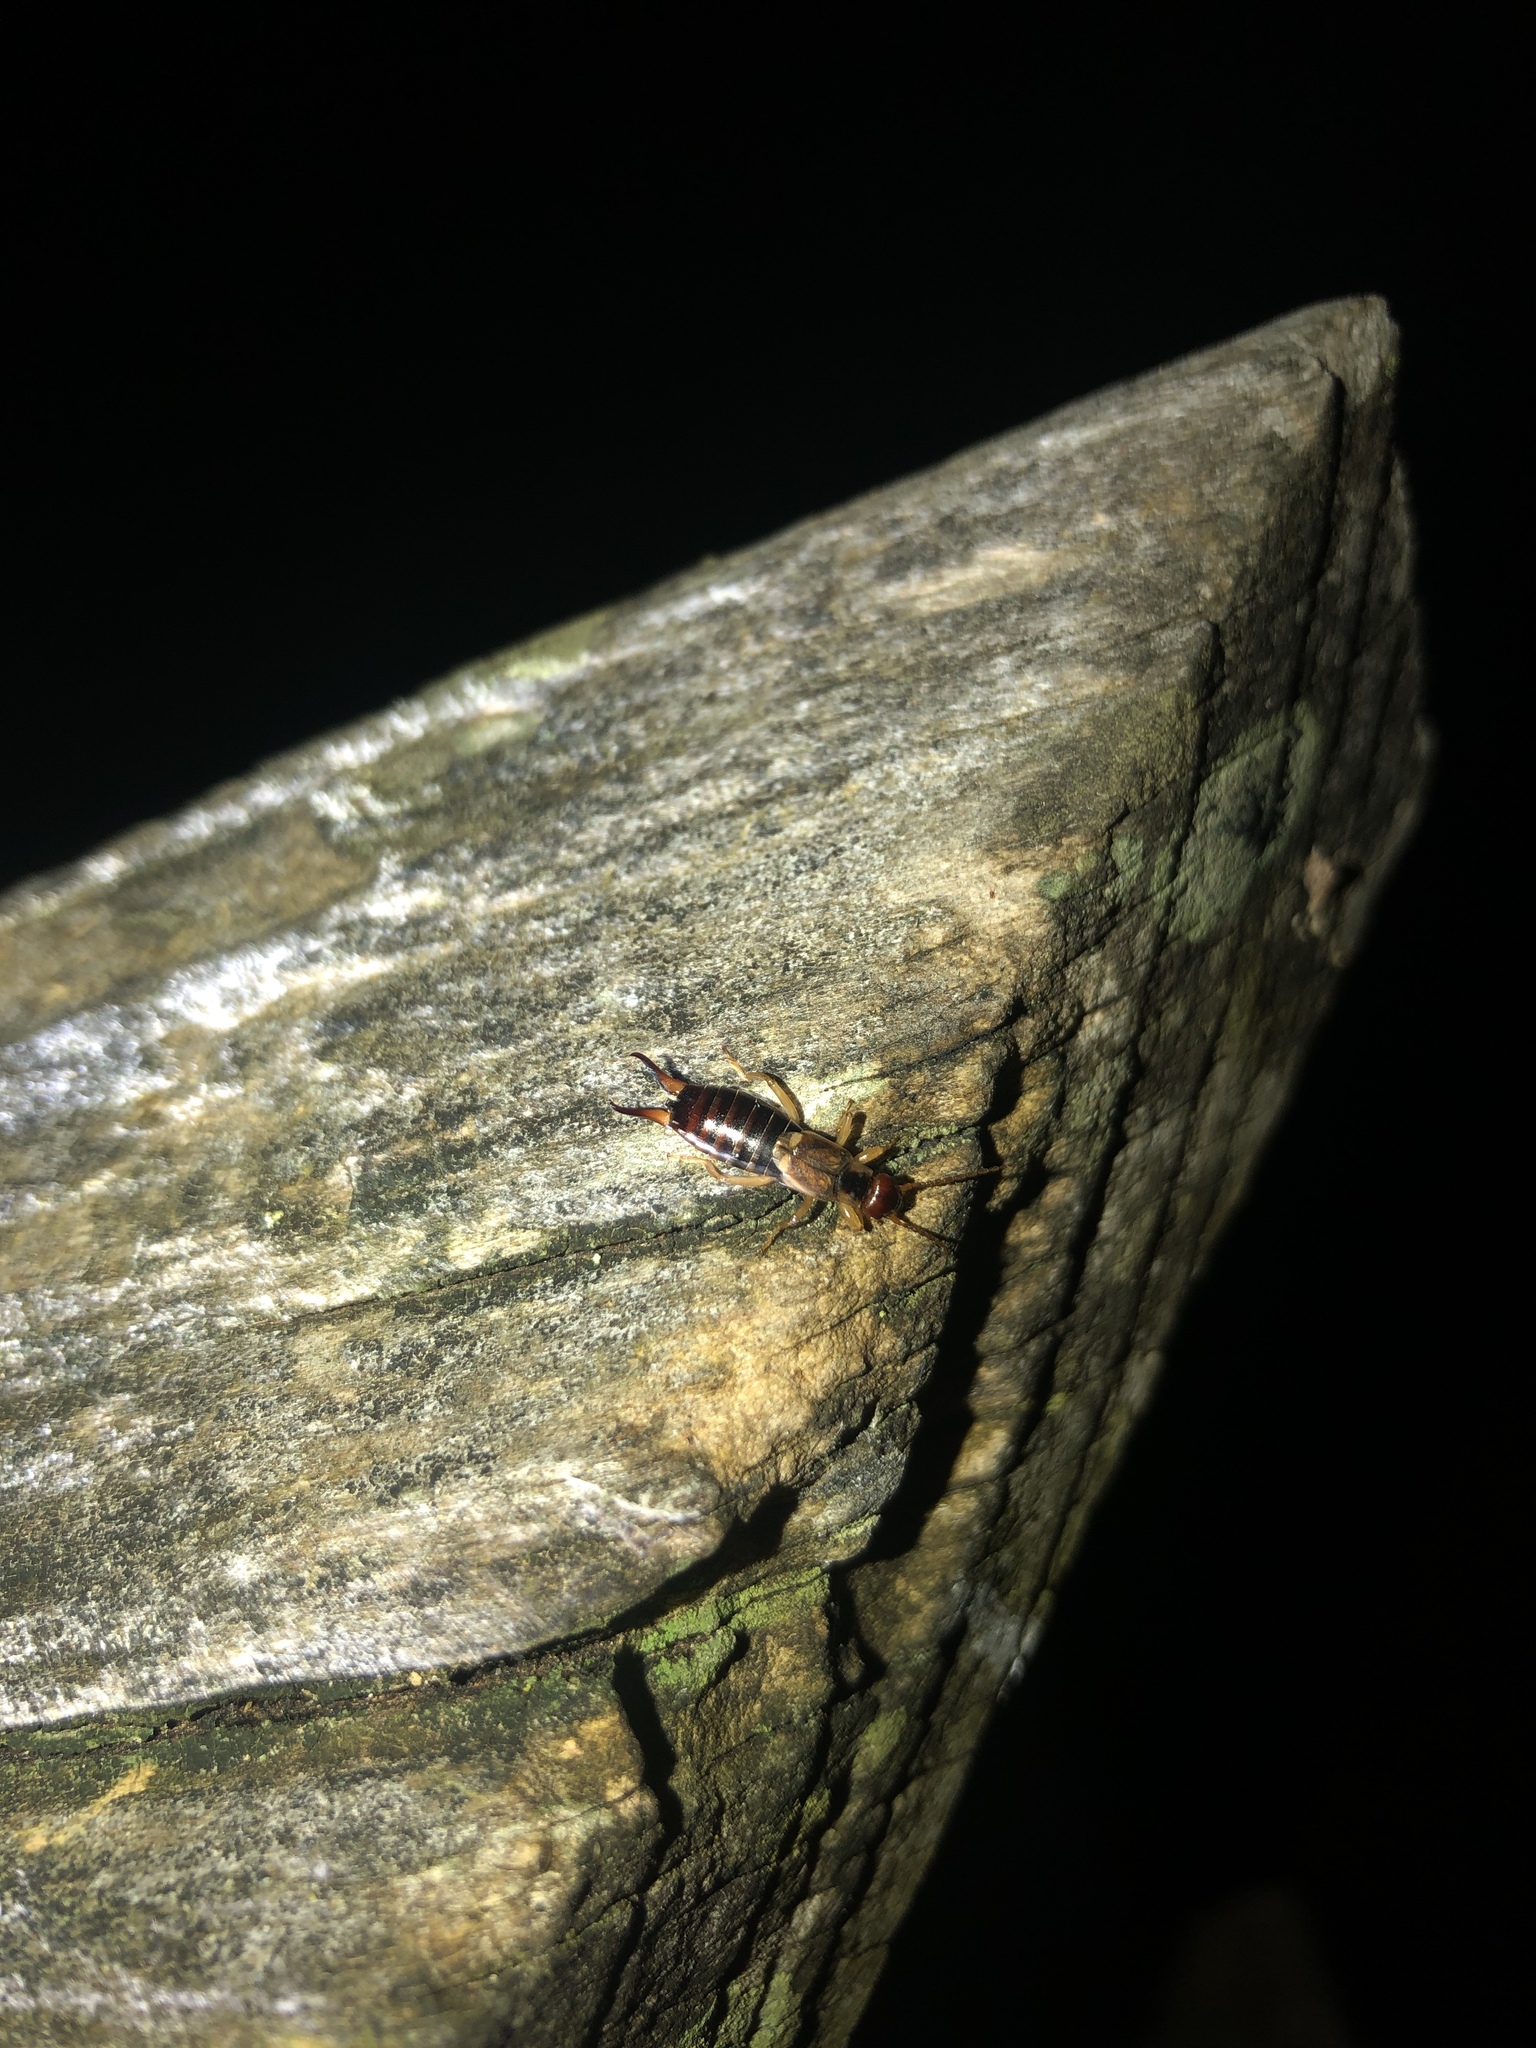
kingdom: Animalia
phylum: Arthropoda
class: Insecta
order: Dermaptera
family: Forficulidae
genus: Forficula
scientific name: Forficula
